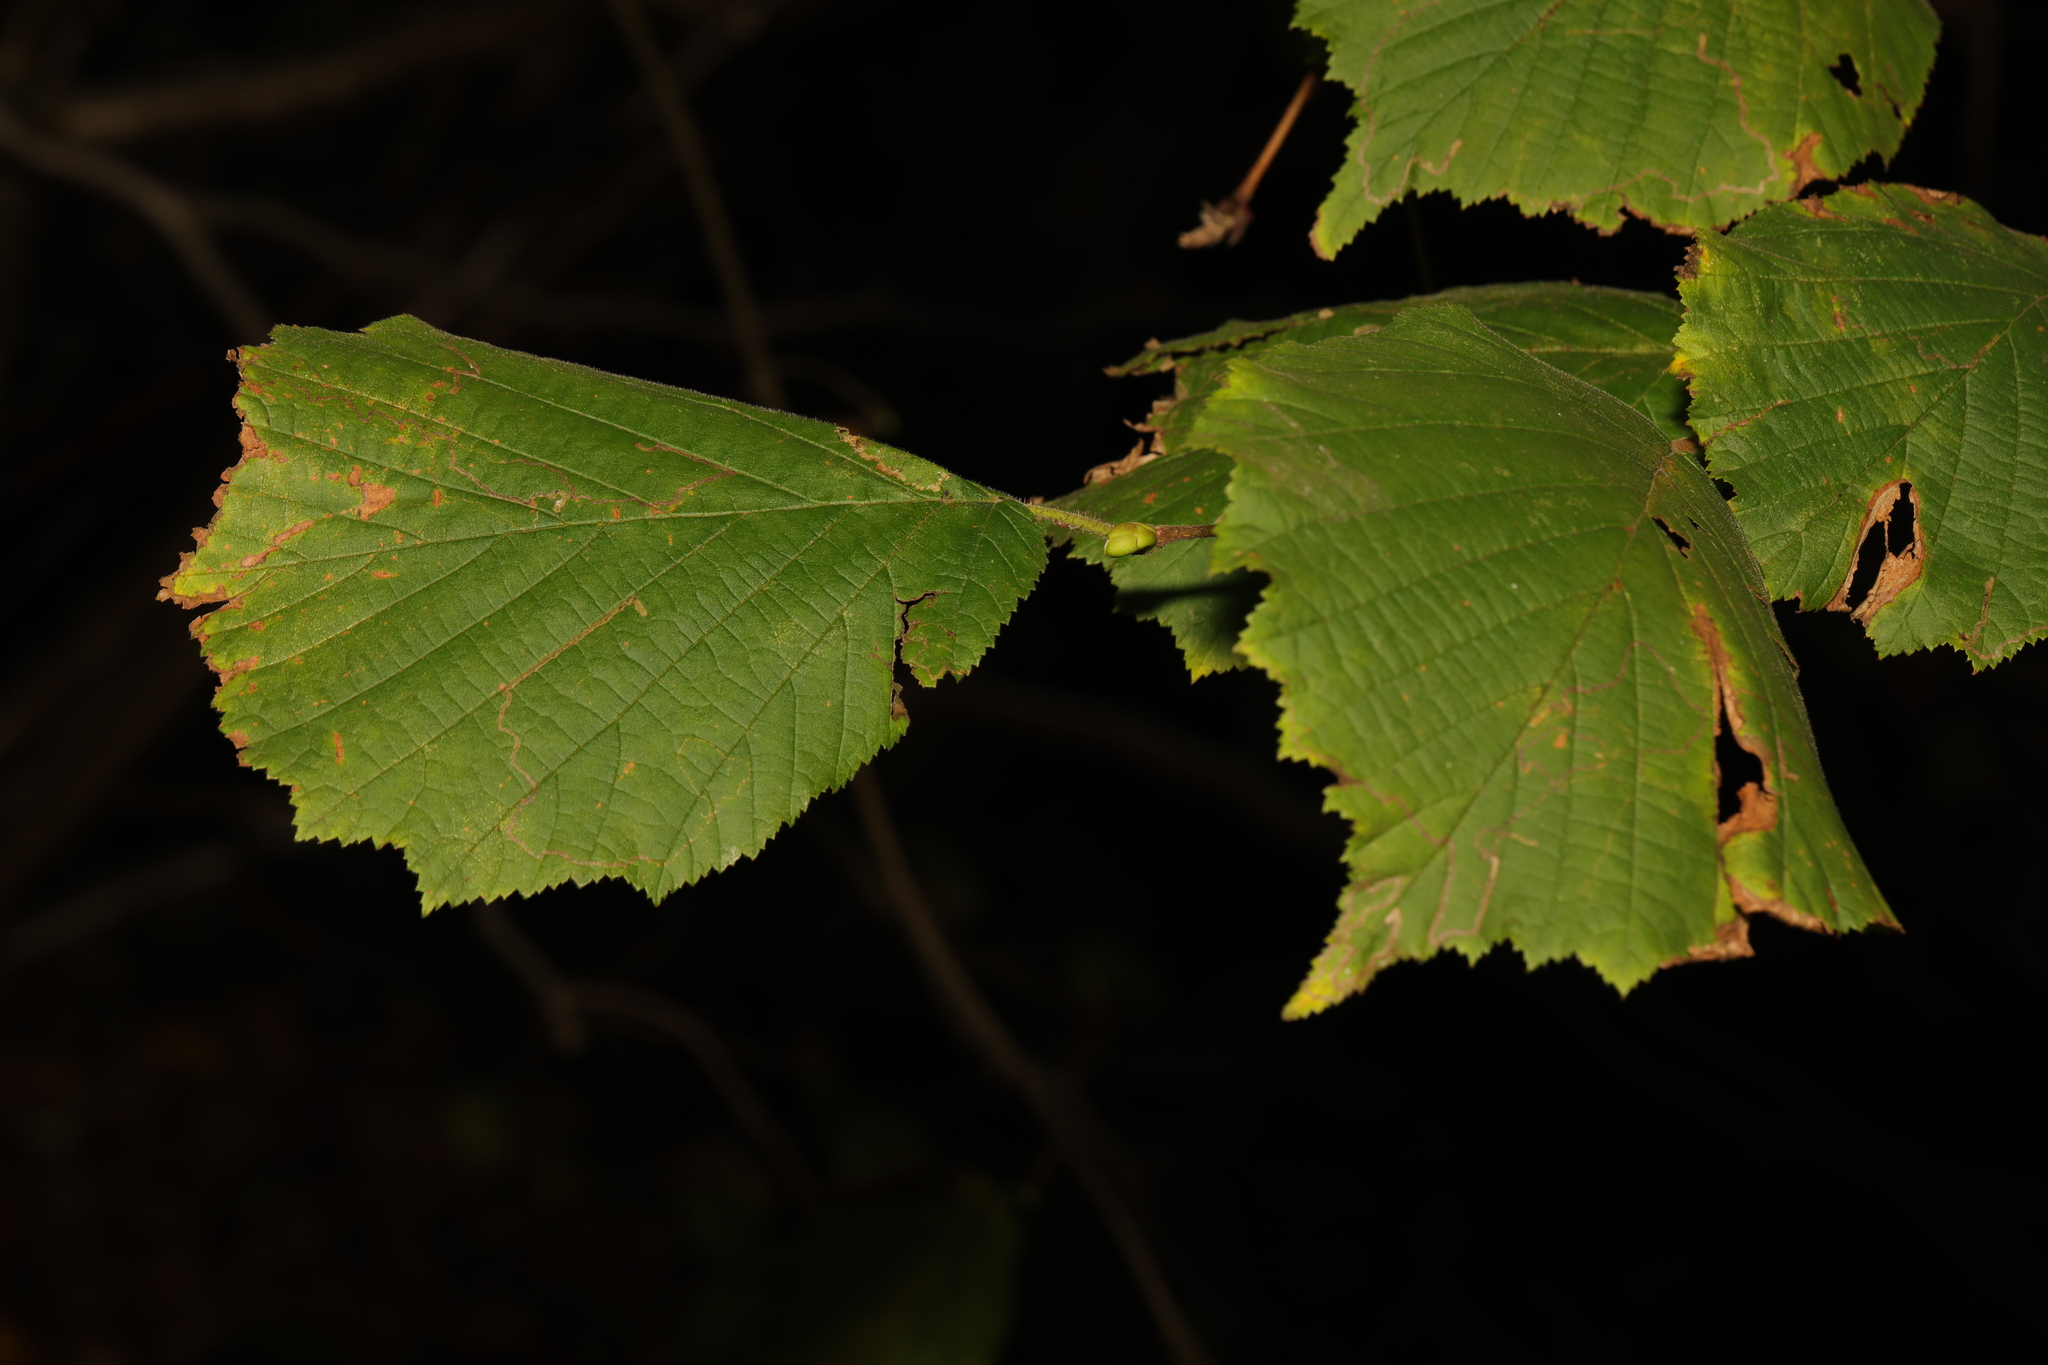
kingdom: Plantae
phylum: Tracheophyta
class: Magnoliopsida
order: Fagales
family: Betulaceae
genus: Corylus
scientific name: Corylus avellana
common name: European hazel
